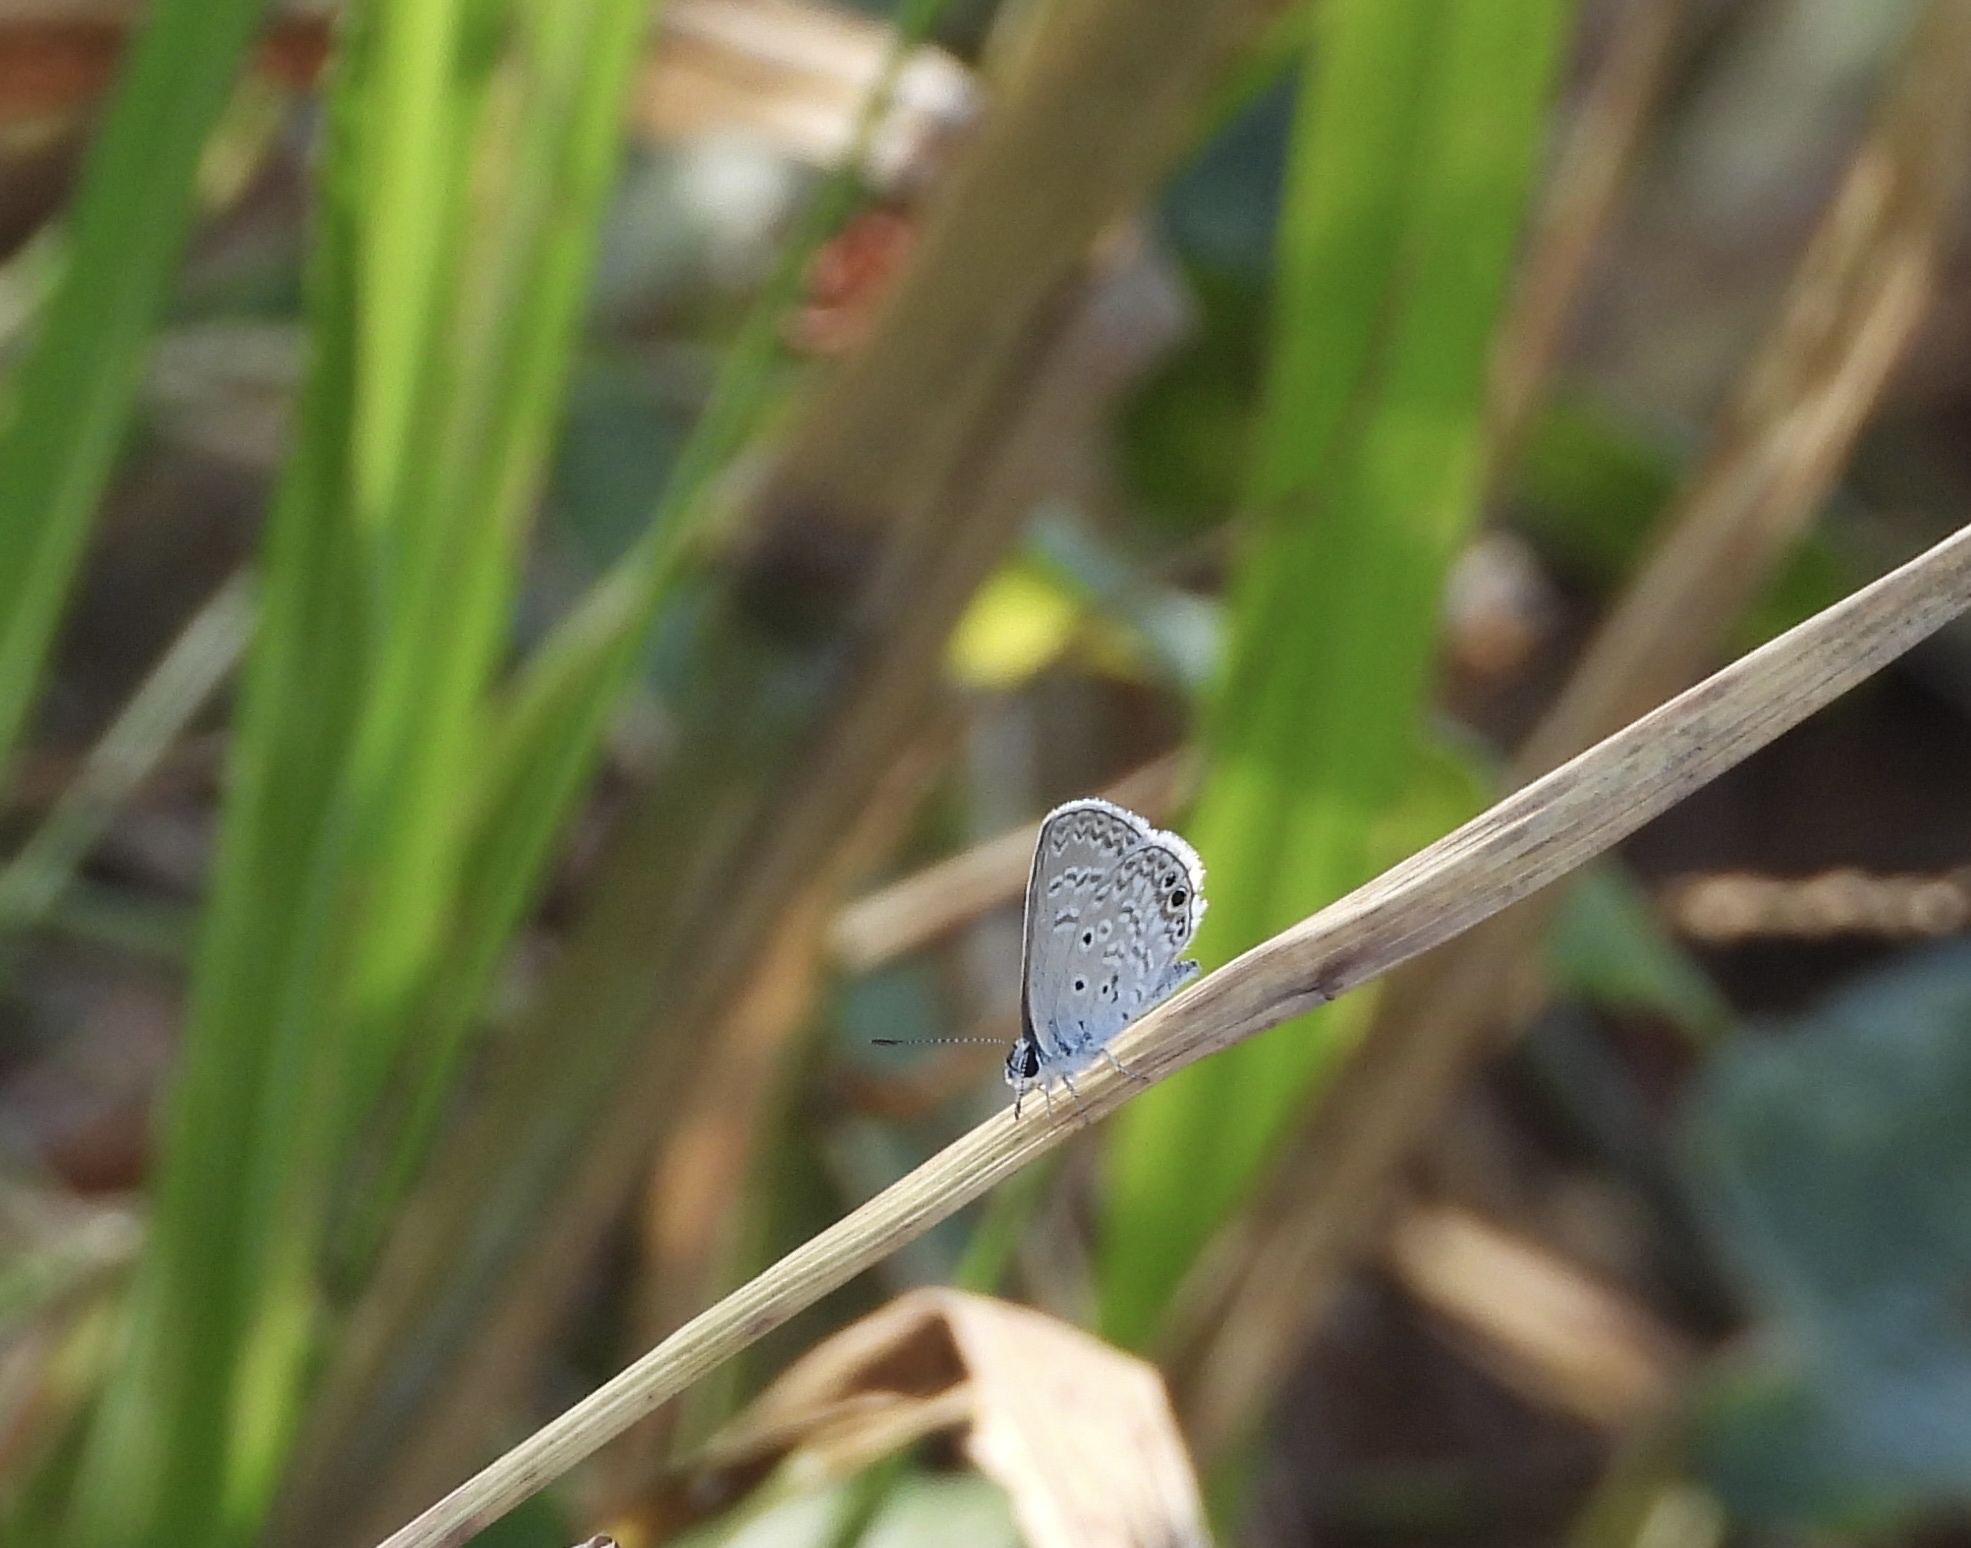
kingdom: Animalia
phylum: Arthropoda
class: Insecta
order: Lepidoptera
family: Lycaenidae
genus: Echinargus
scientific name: Echinargus isola
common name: Reakirt's blue
